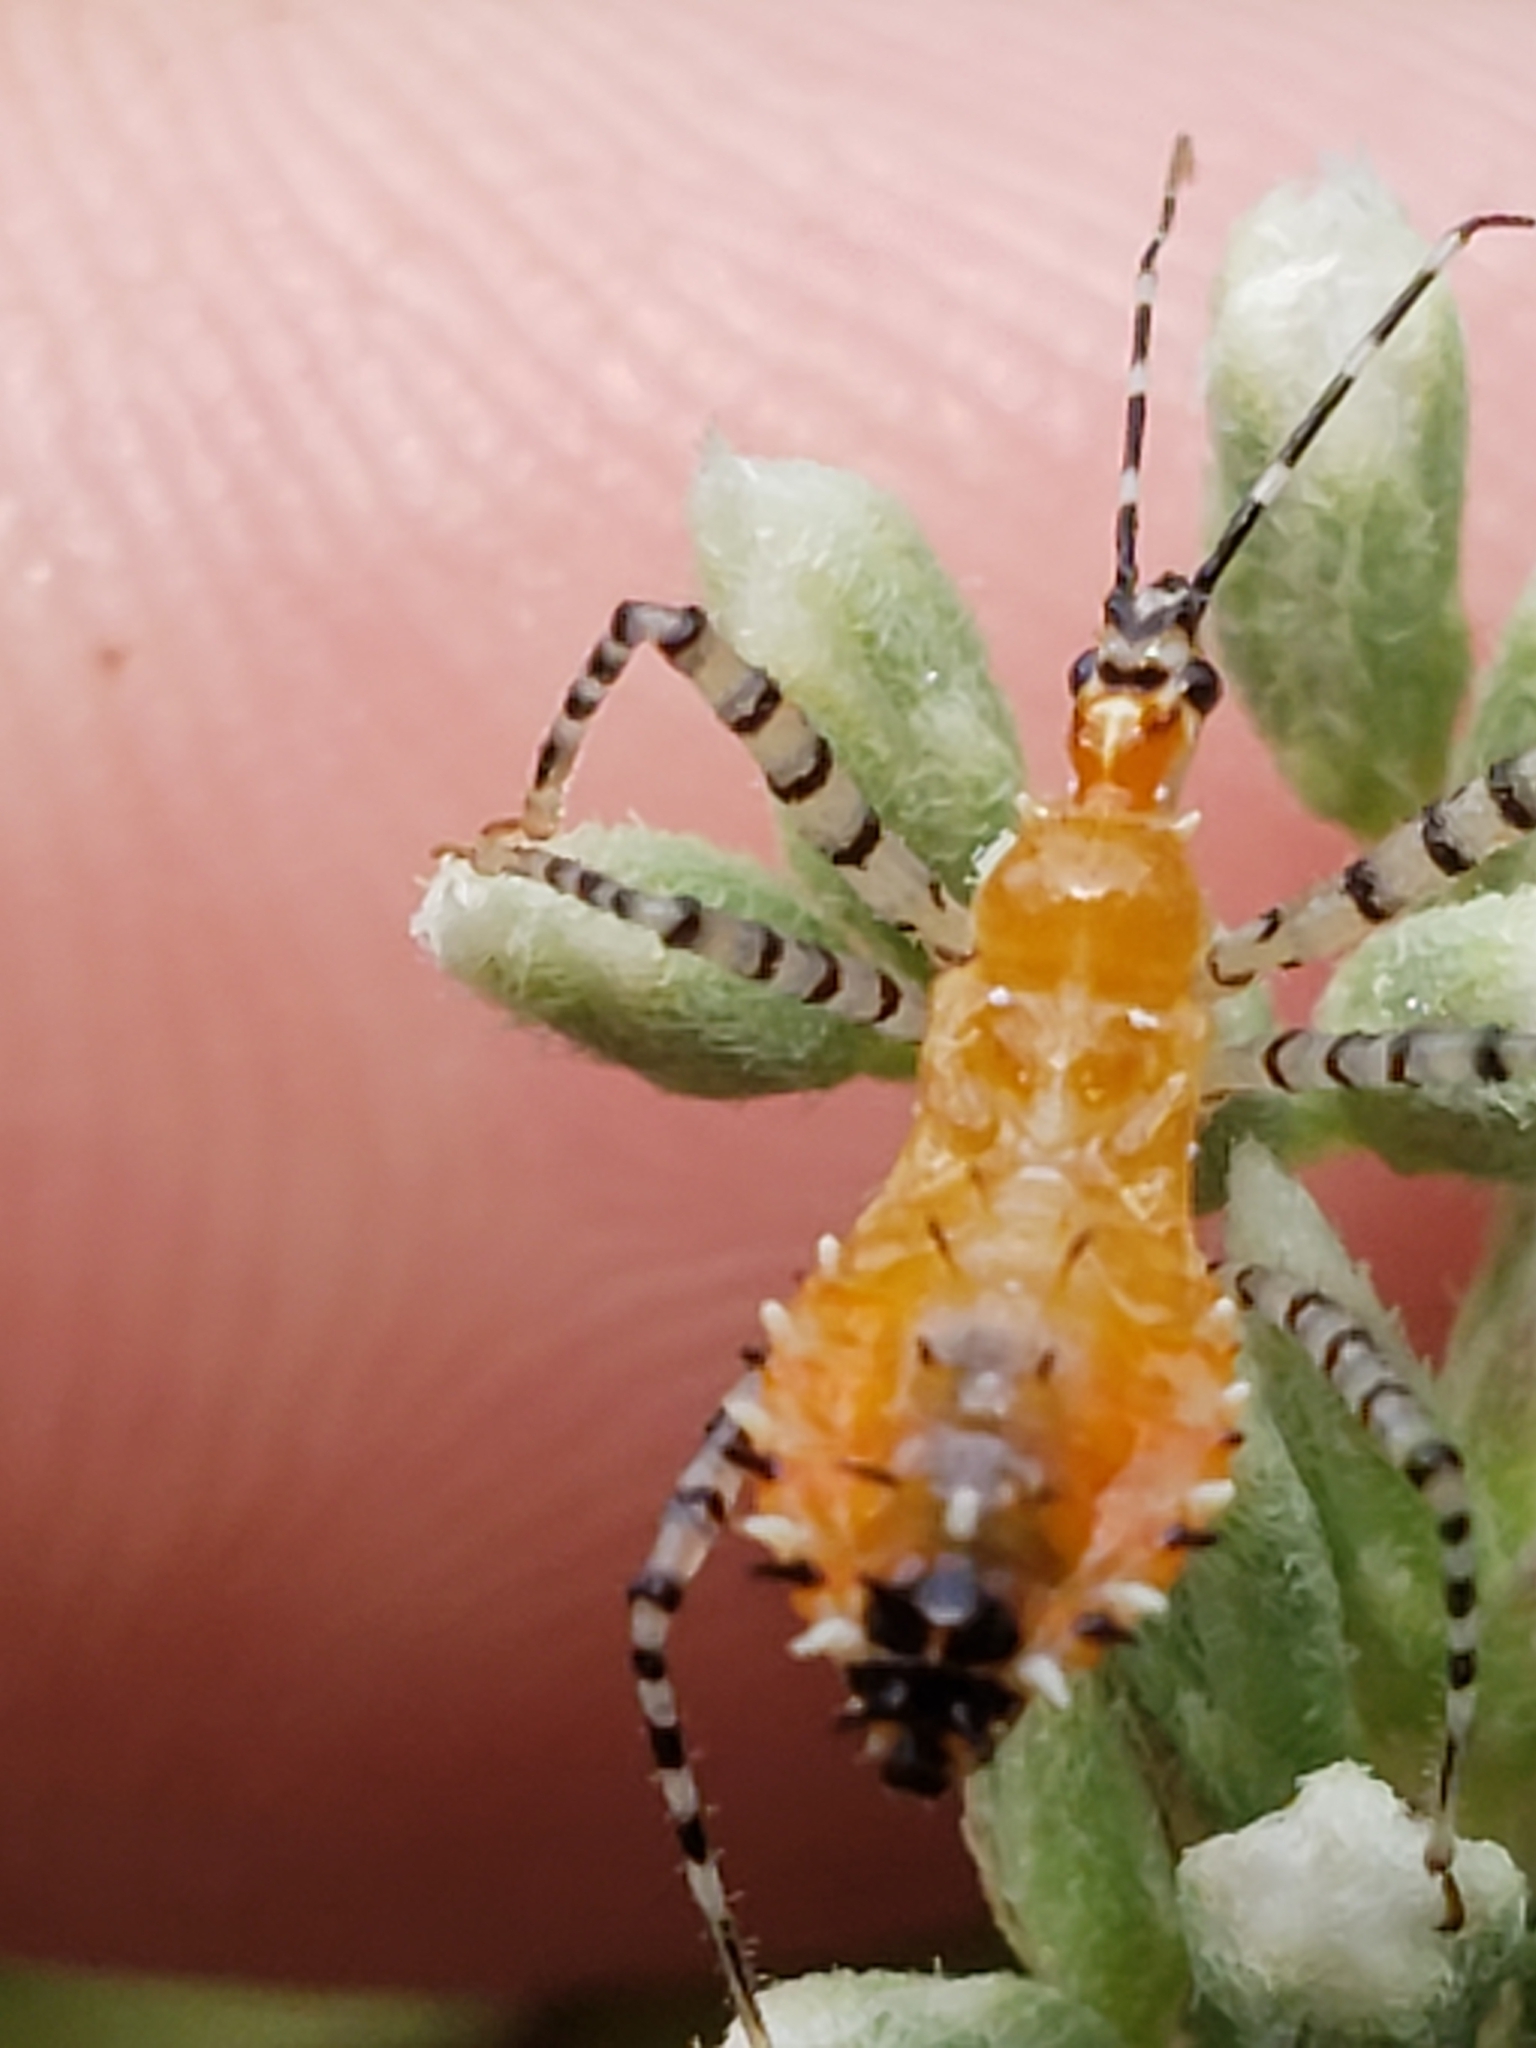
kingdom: Animalia
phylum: Arthropoda
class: Insecta
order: Hemiptera
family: Reduviidae
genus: Pselliopus
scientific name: Pselliopus cinctus
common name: Ringed assassin bug
